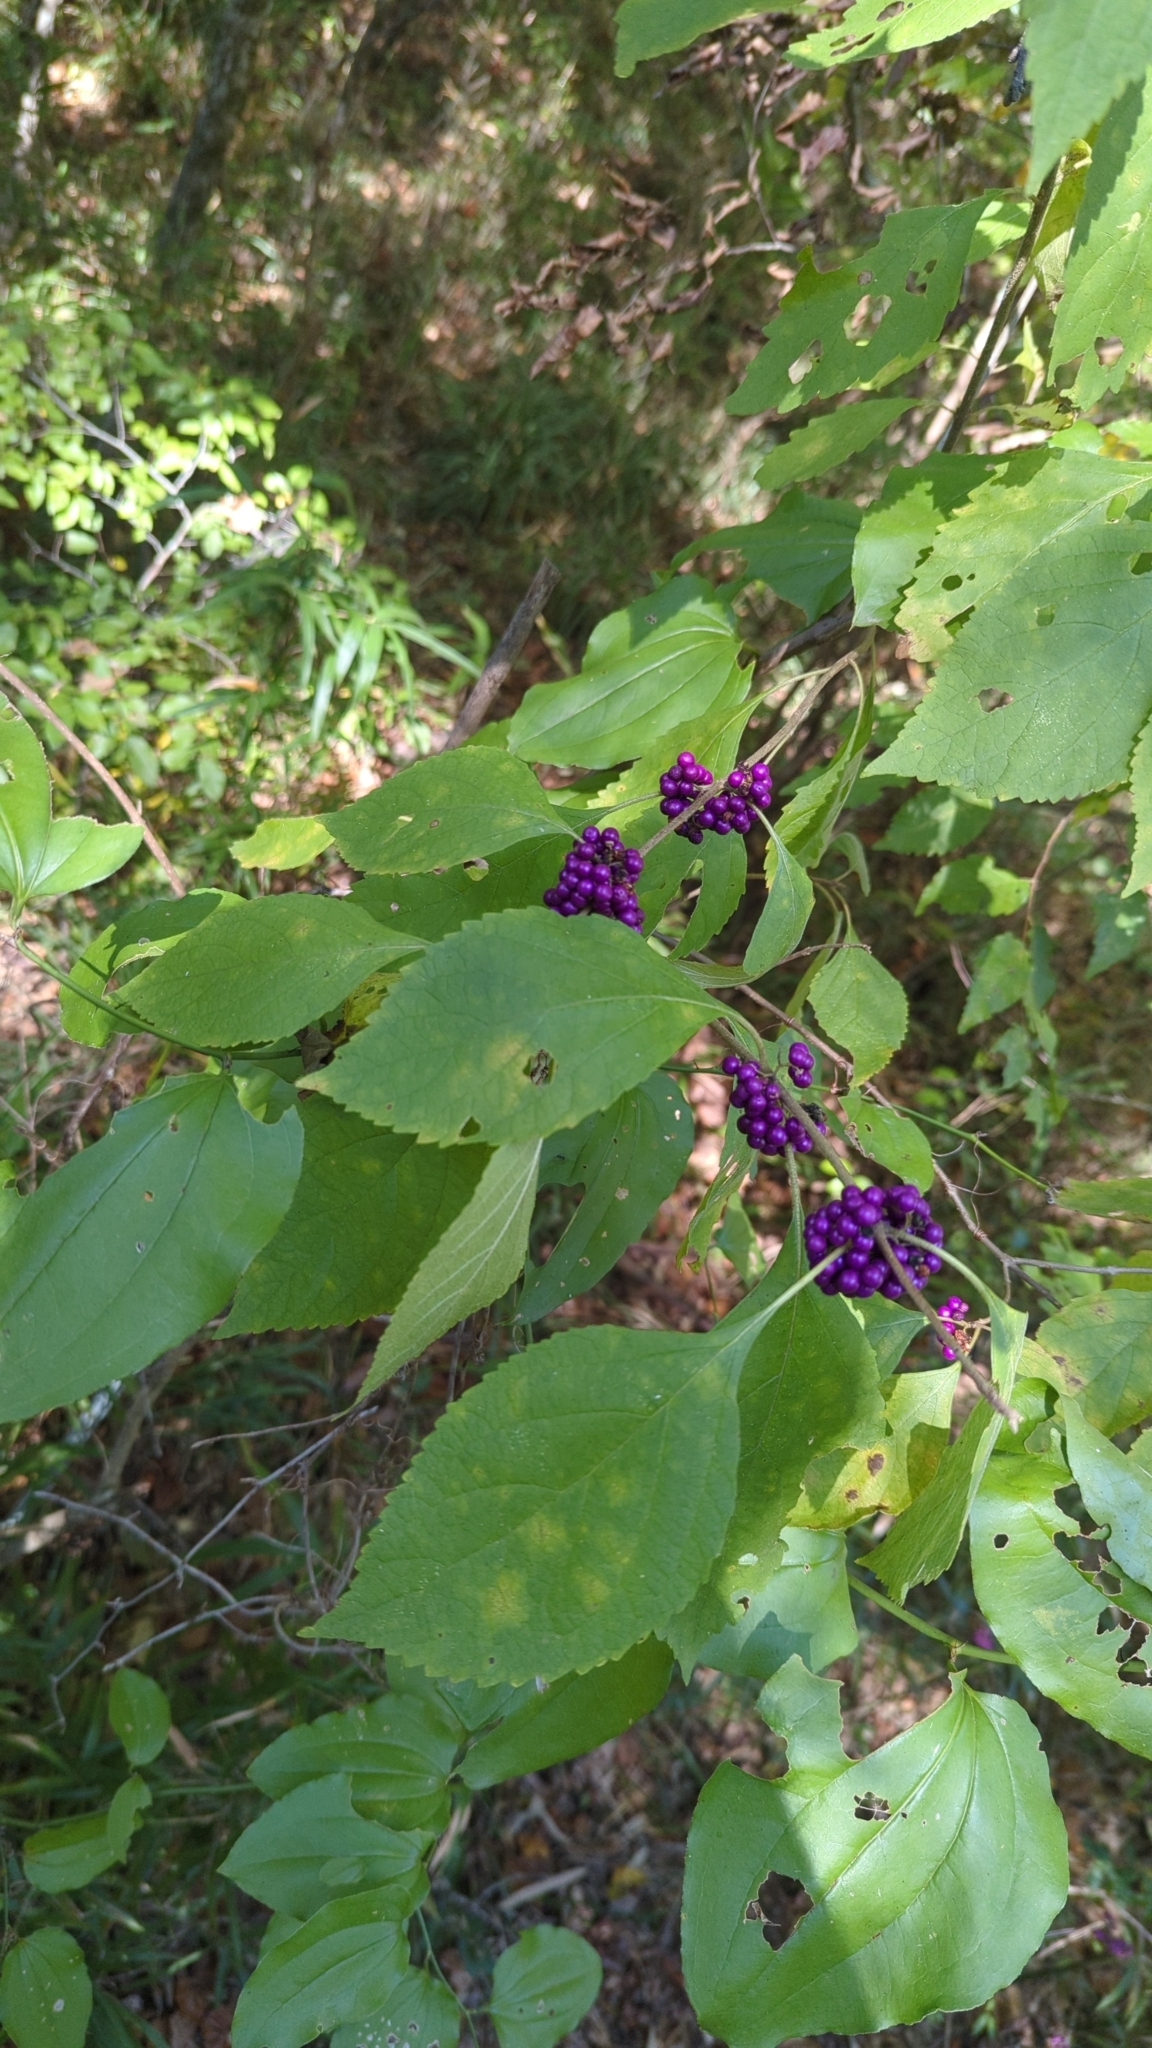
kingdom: Plantae
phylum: Tracheophyta
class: Magnoliopsida
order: Lamiales
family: Lamiaceae
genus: Callicarpa
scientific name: Callicarpa americana
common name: American beautyberry
